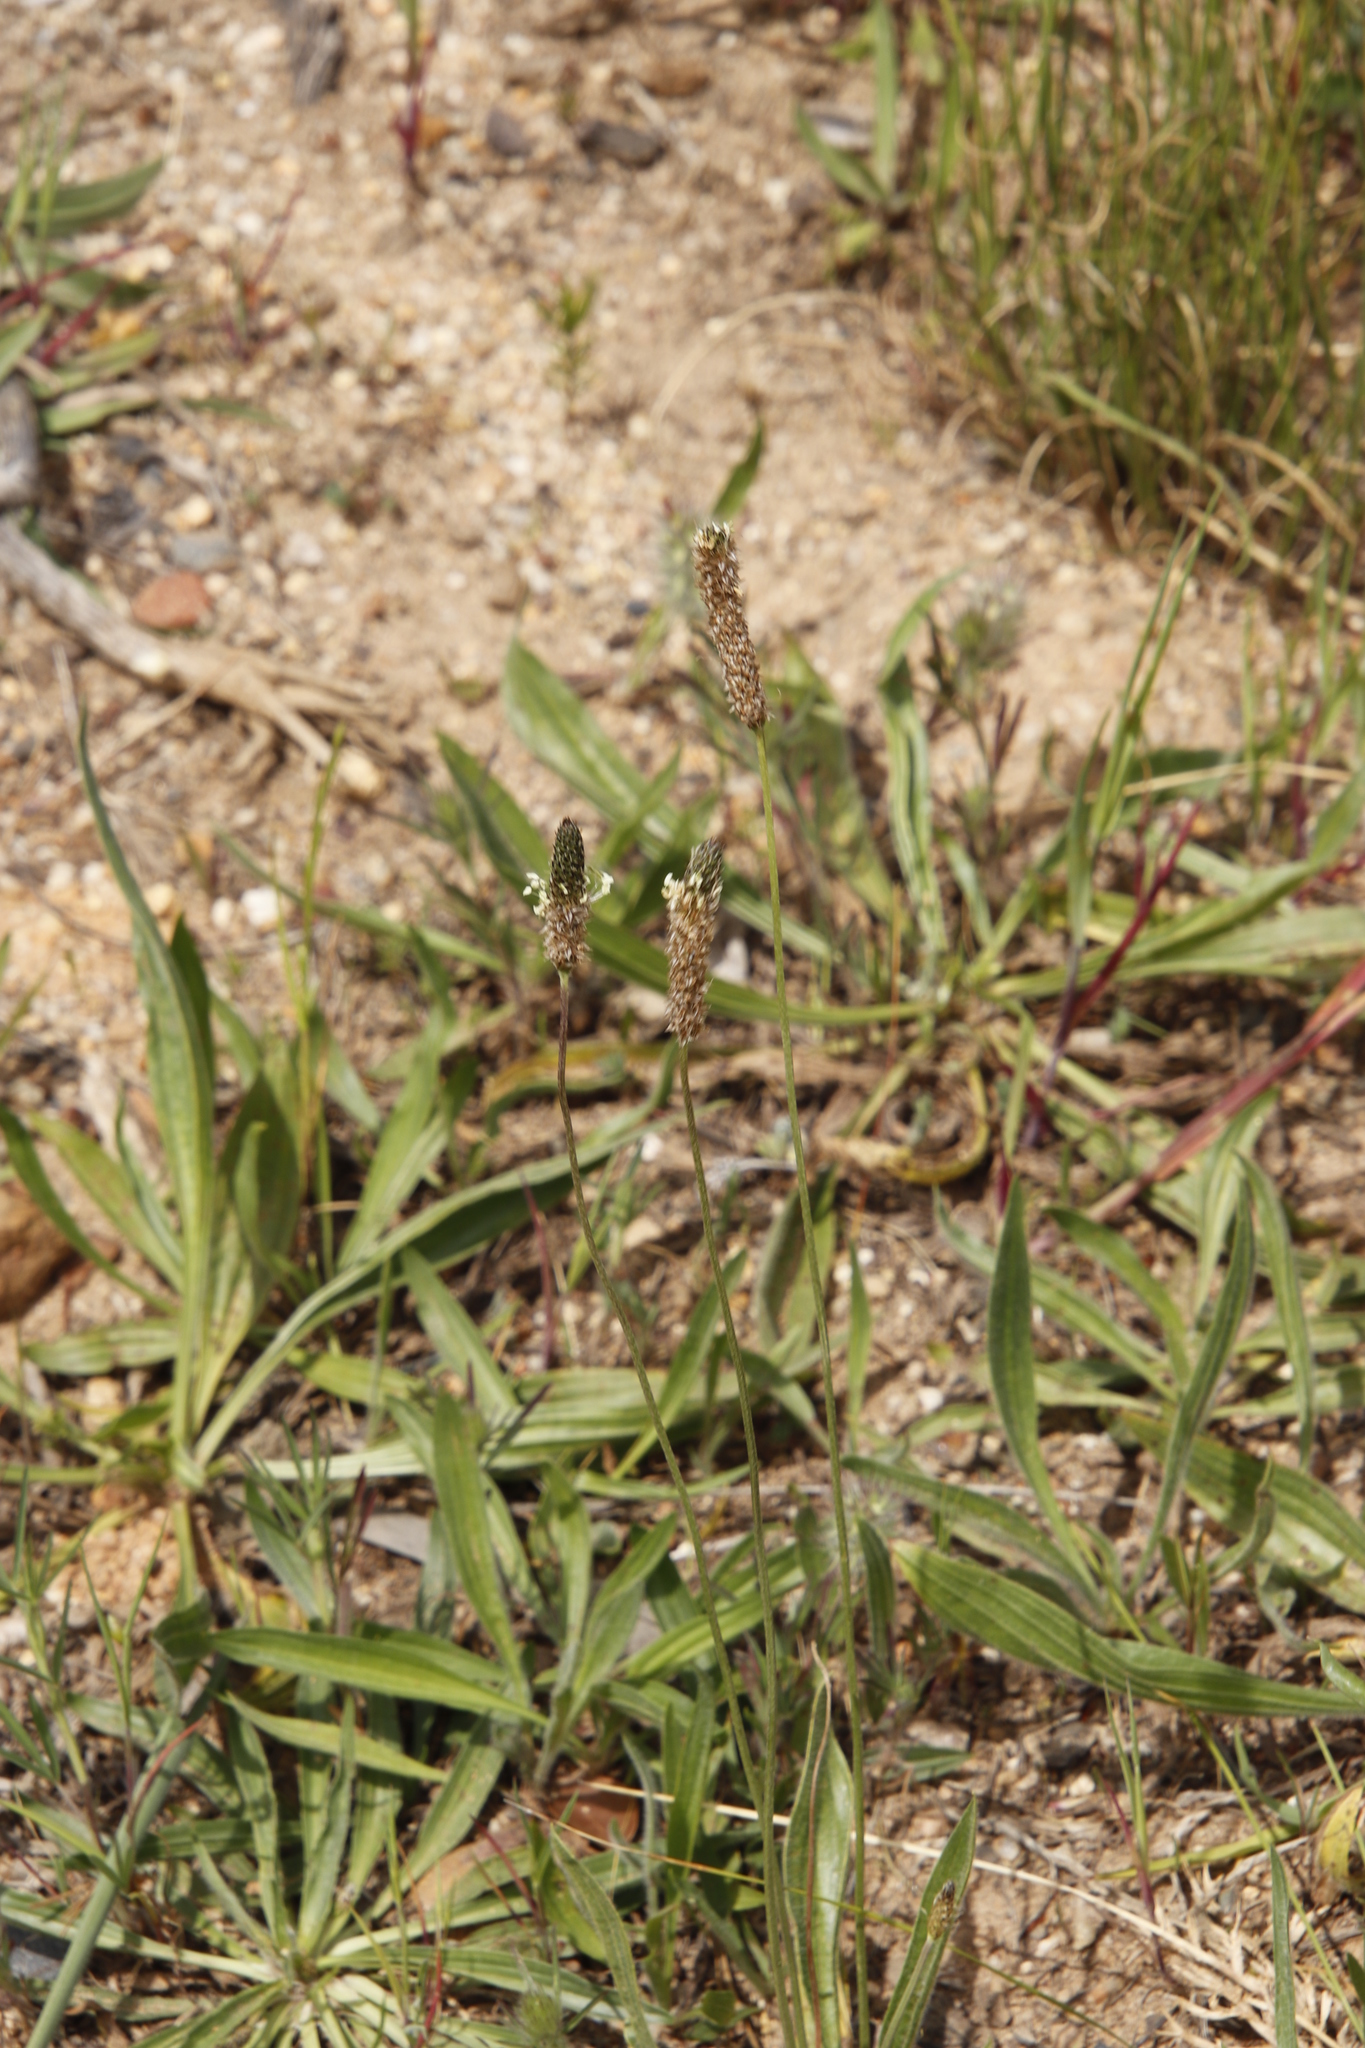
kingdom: Plantae
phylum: Tracheophyta
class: Magnoliopsida
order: Lamiales
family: Plantaginaceae
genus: Plantago
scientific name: Plantago lanceolata
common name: Ribwort plantain
